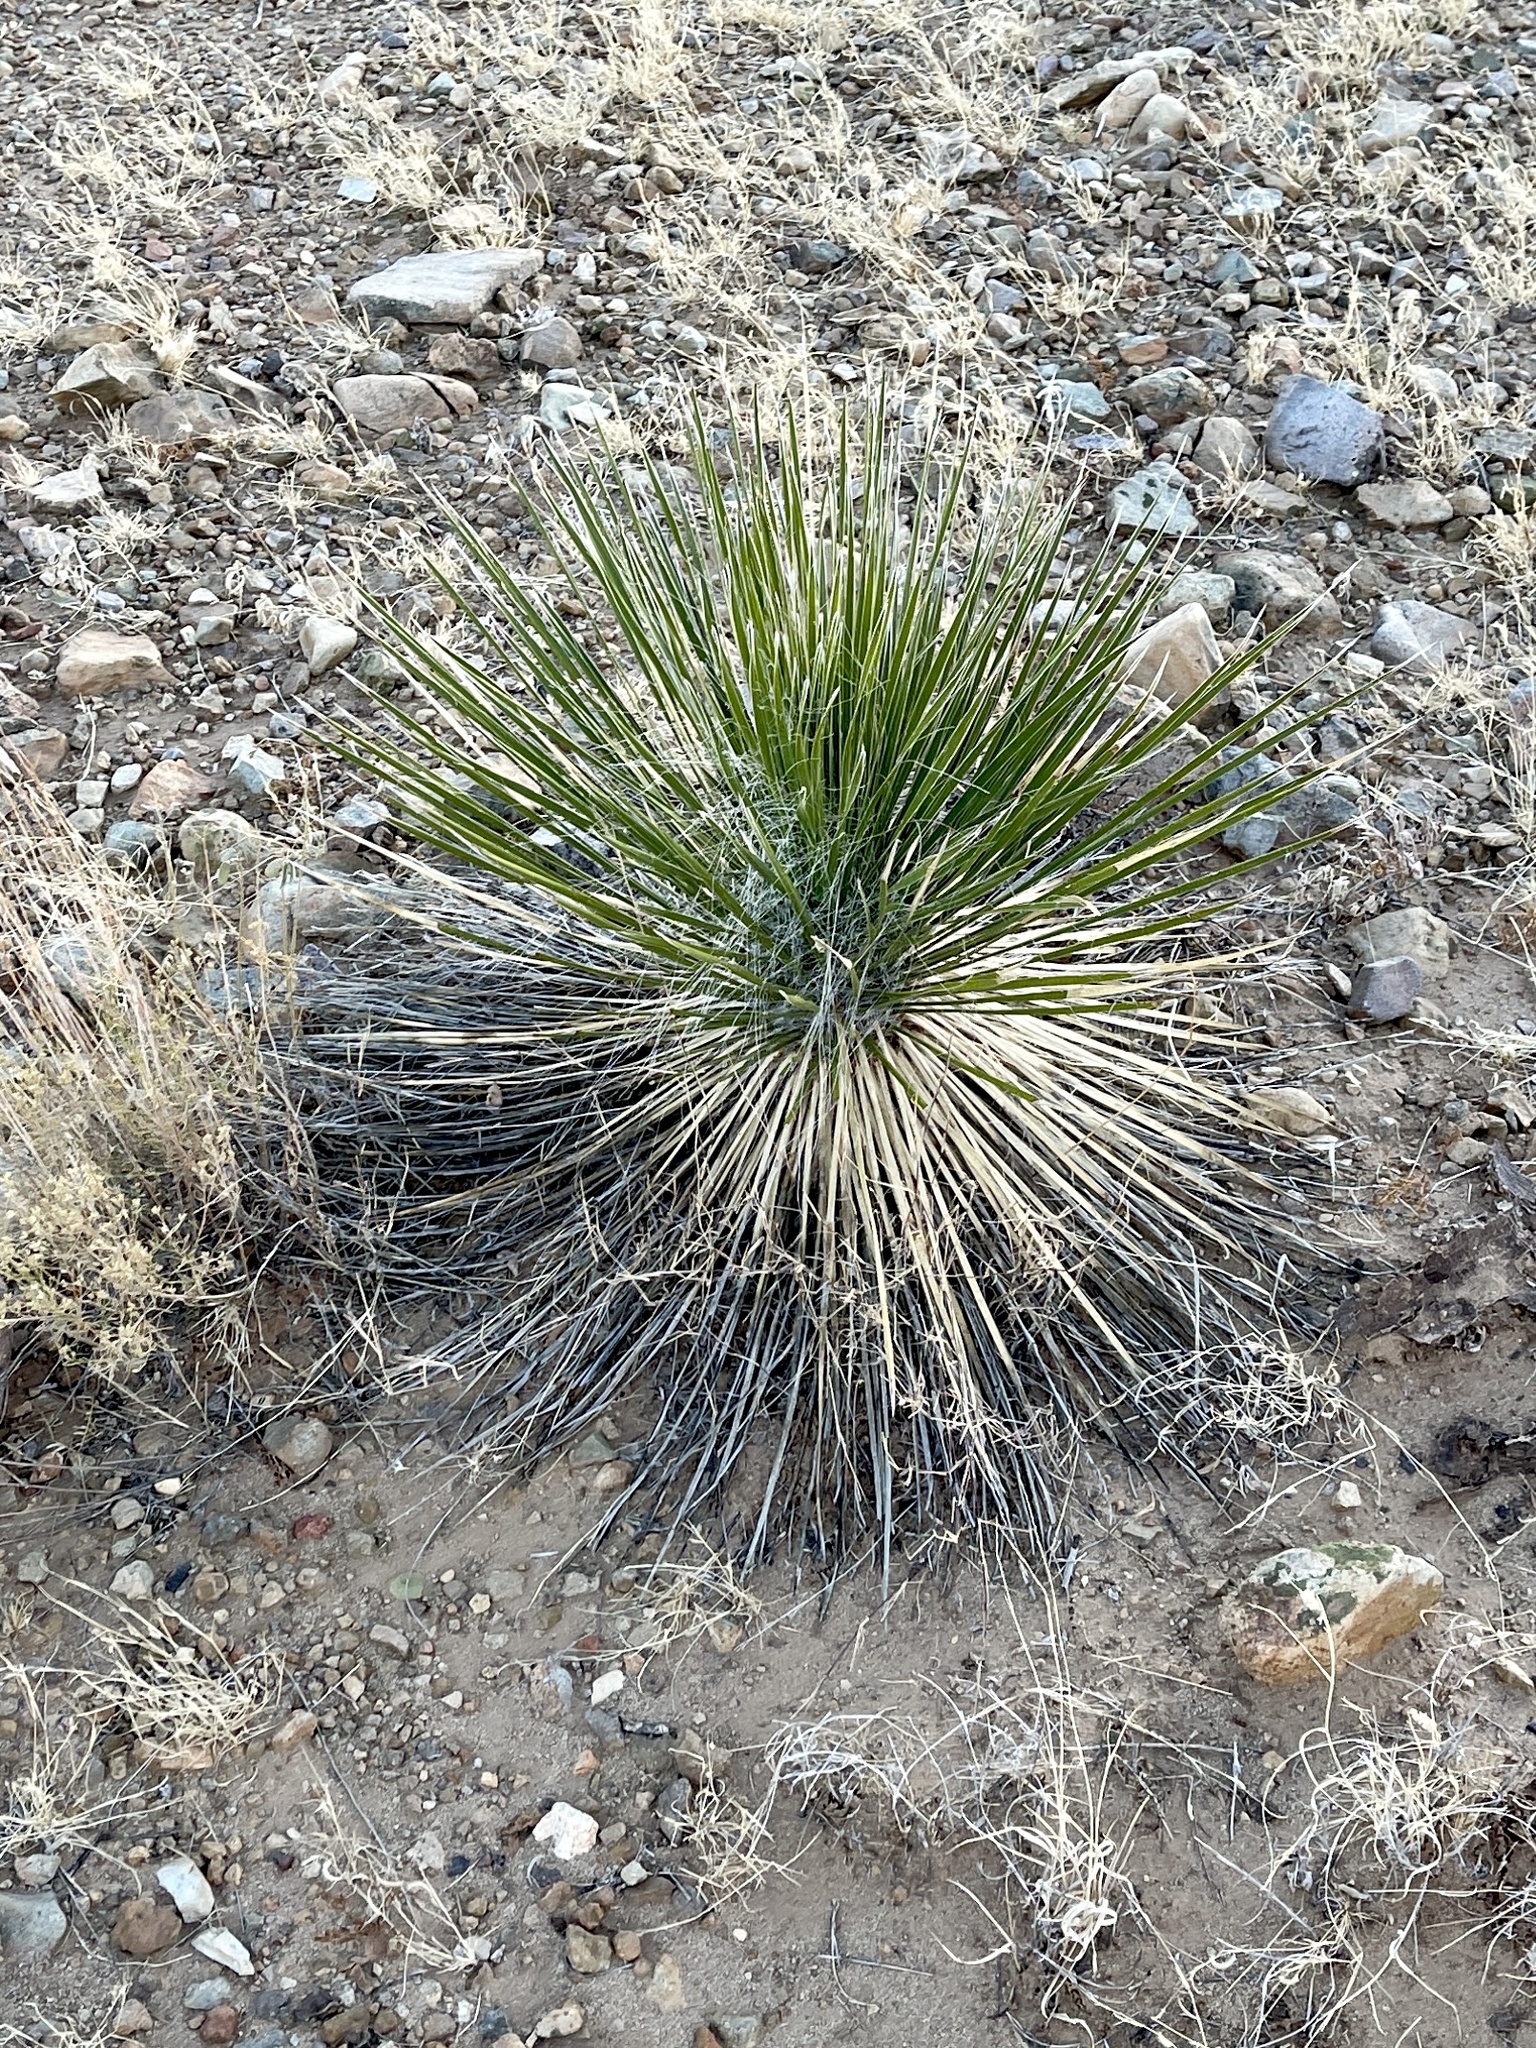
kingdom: Plantae
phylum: Tracheophyta
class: Liliopsida
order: Asparagales
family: Asparagaceae
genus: Yucca
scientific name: Yucca elata
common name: Palmella
